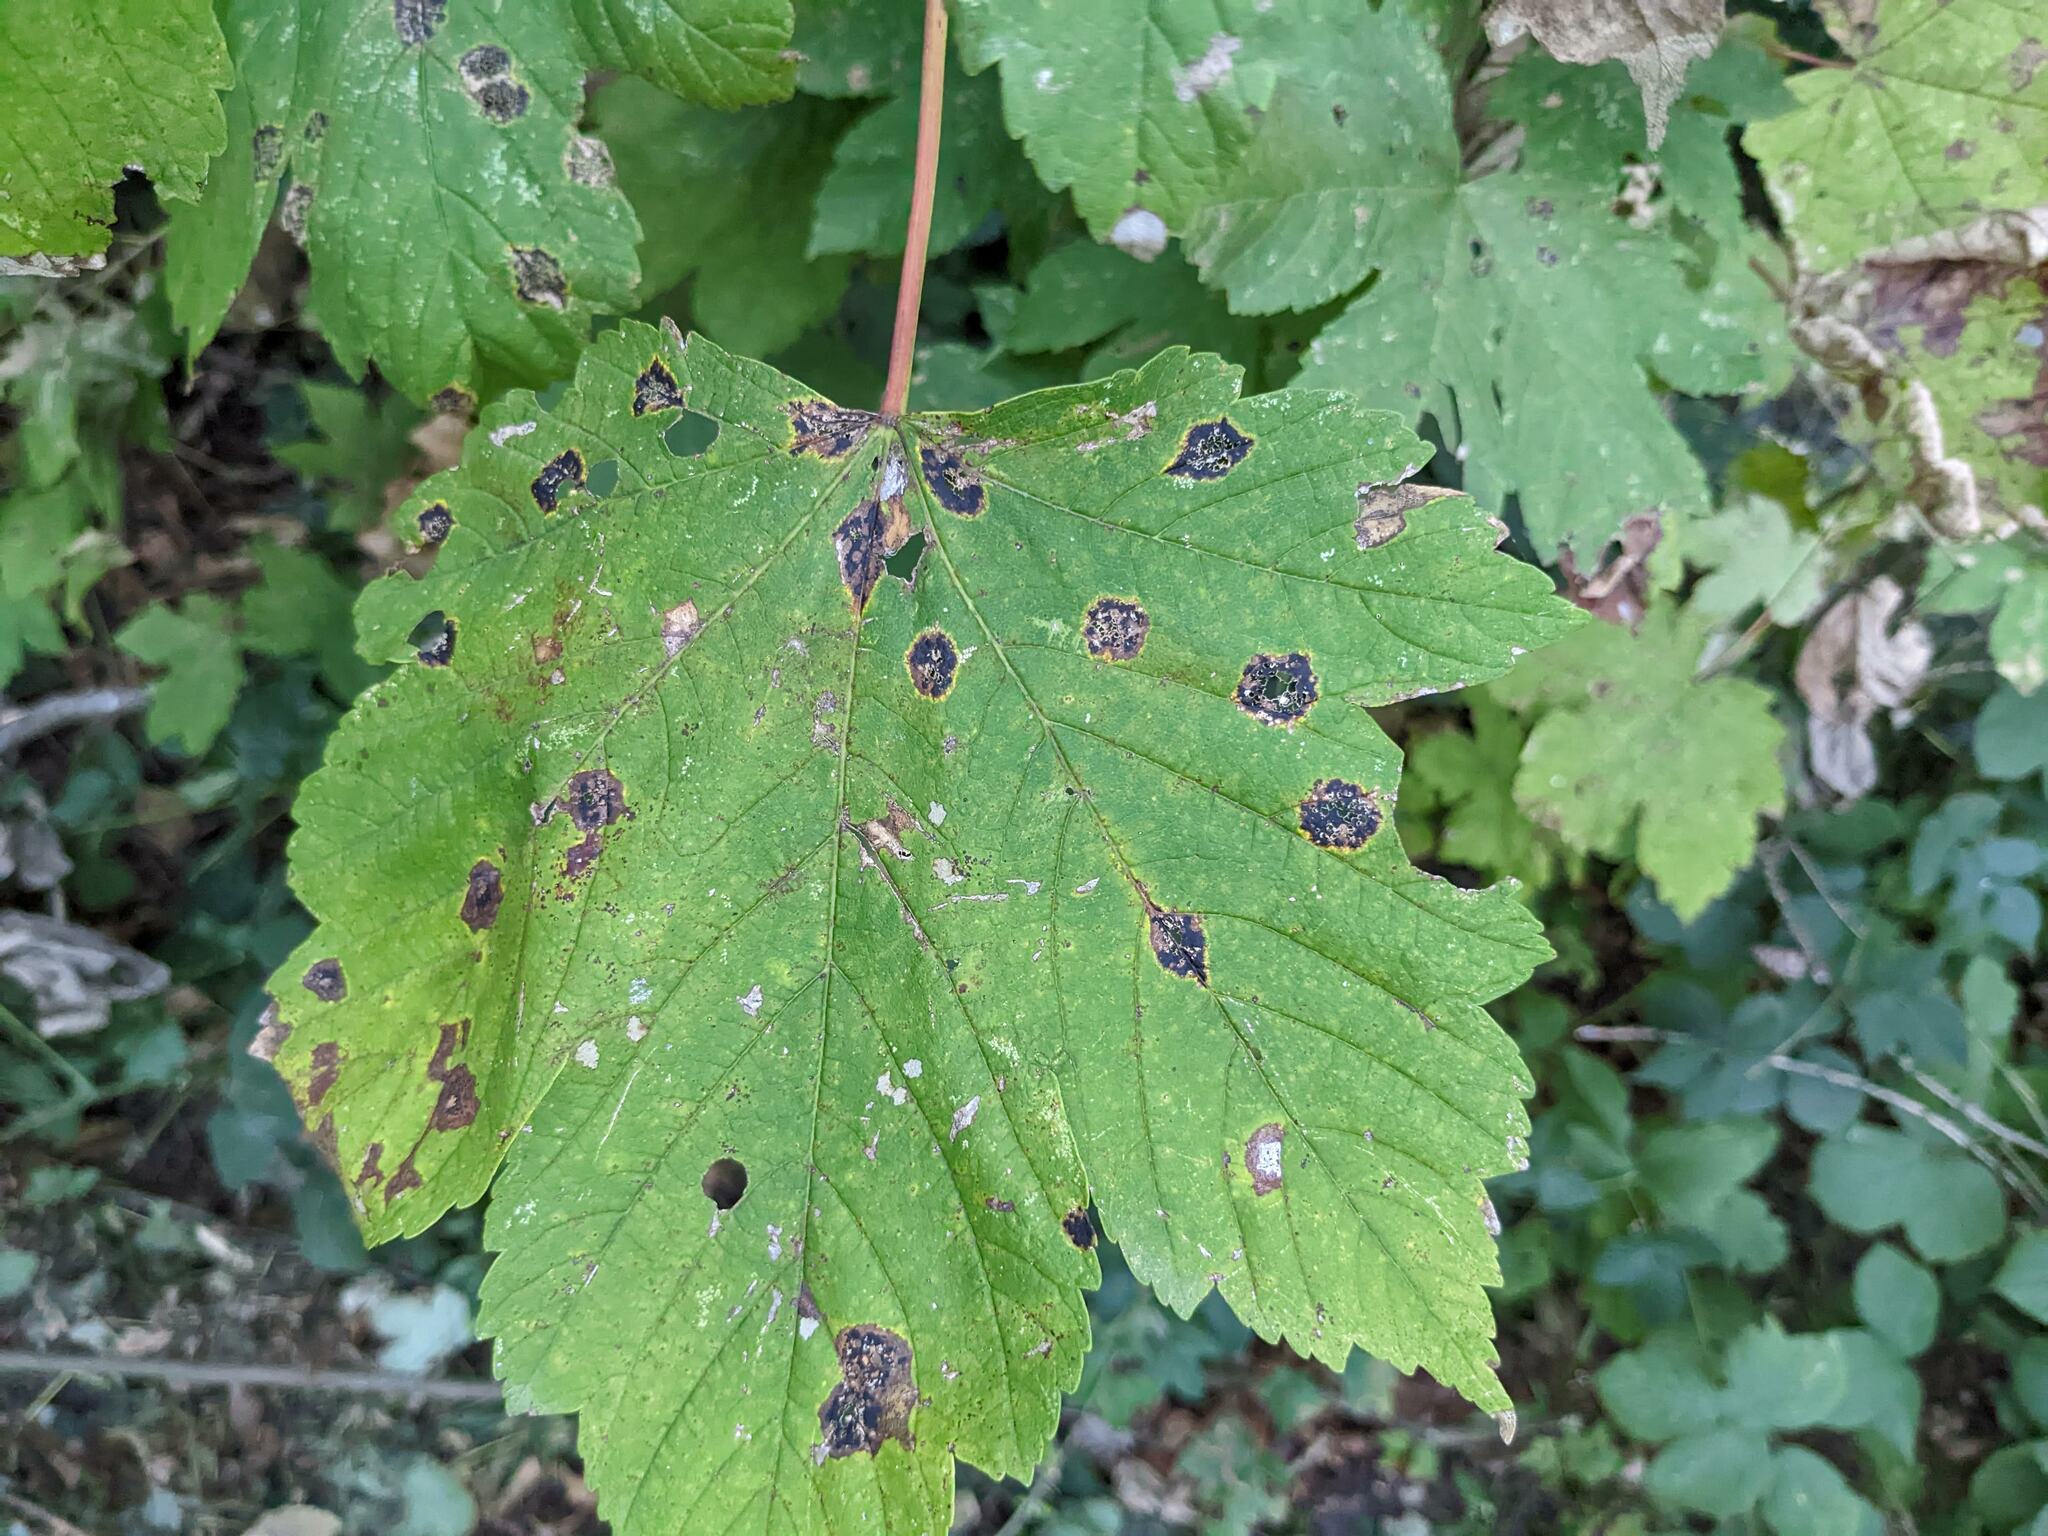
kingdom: Fungi
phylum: Ascomycota
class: Leotiomycetes
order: Rhytismatales
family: Rhytismataceae
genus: Rhytisma
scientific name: Rhytisma acerinum
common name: European tar spot
